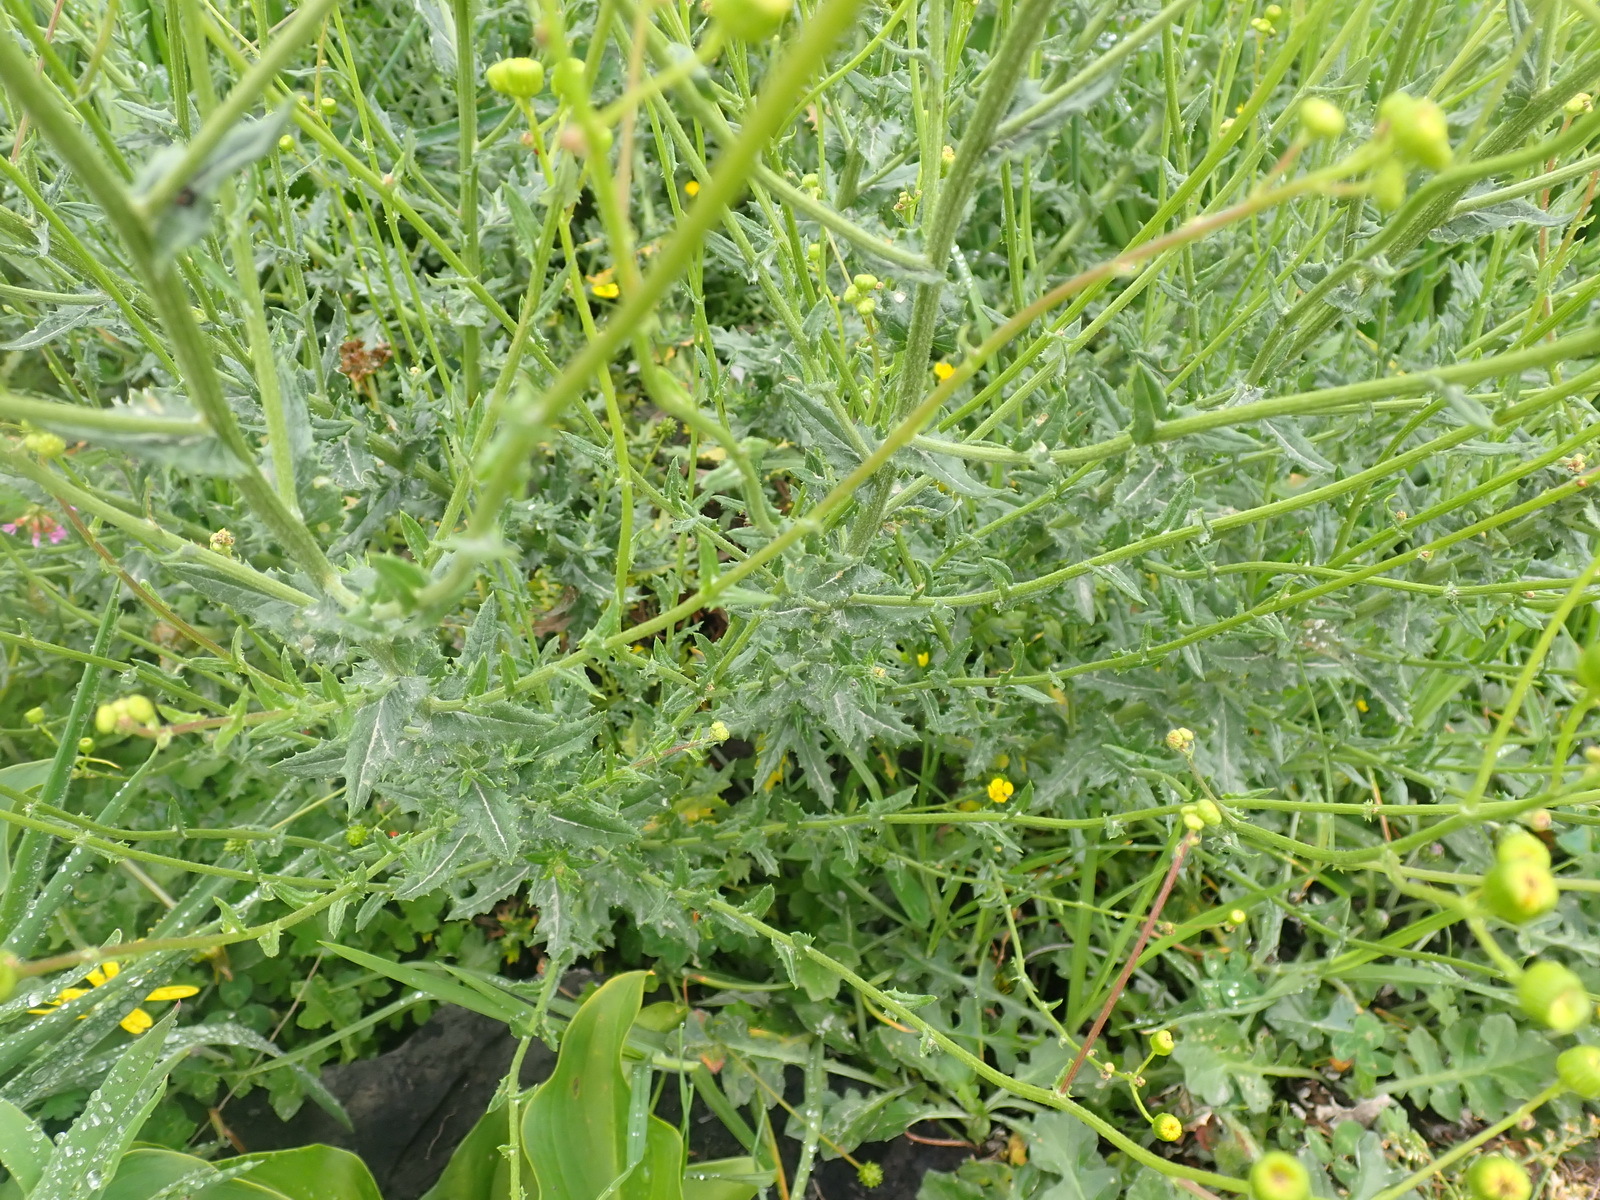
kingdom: Plantae
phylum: Tracheophyta
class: Magnoliopsida
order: Asterales
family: Asteraceae
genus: Senecio
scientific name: Senecio ilicifolius
